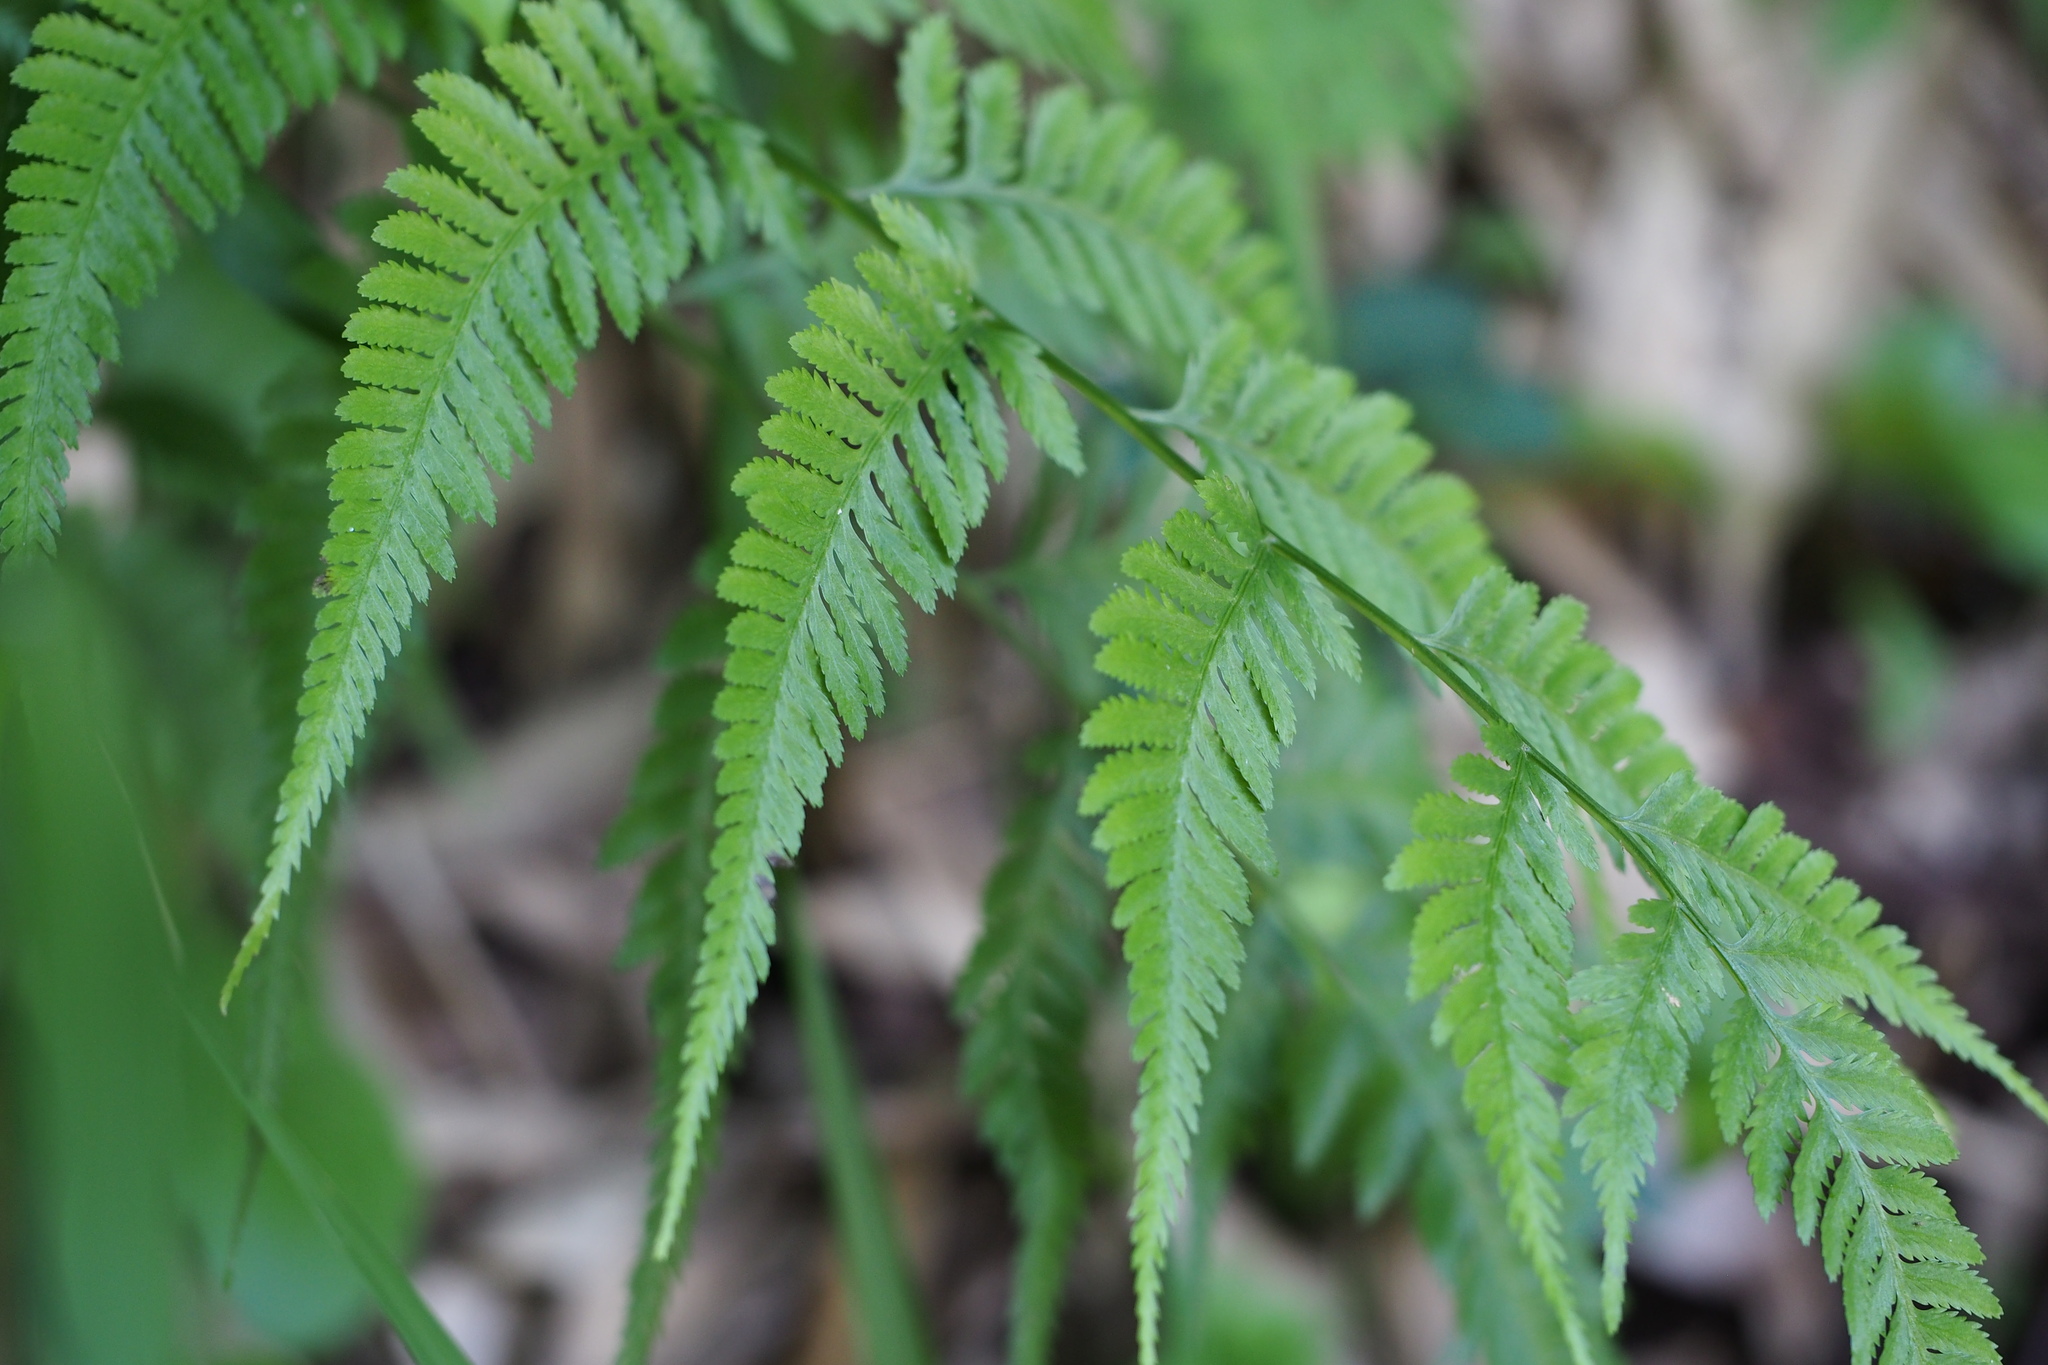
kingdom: Plantae
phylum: Tracheophyta
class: Polypodiopsida
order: Polypodiales
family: Athyriaceae
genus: Anisocampium
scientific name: Anisocampium niponicum
